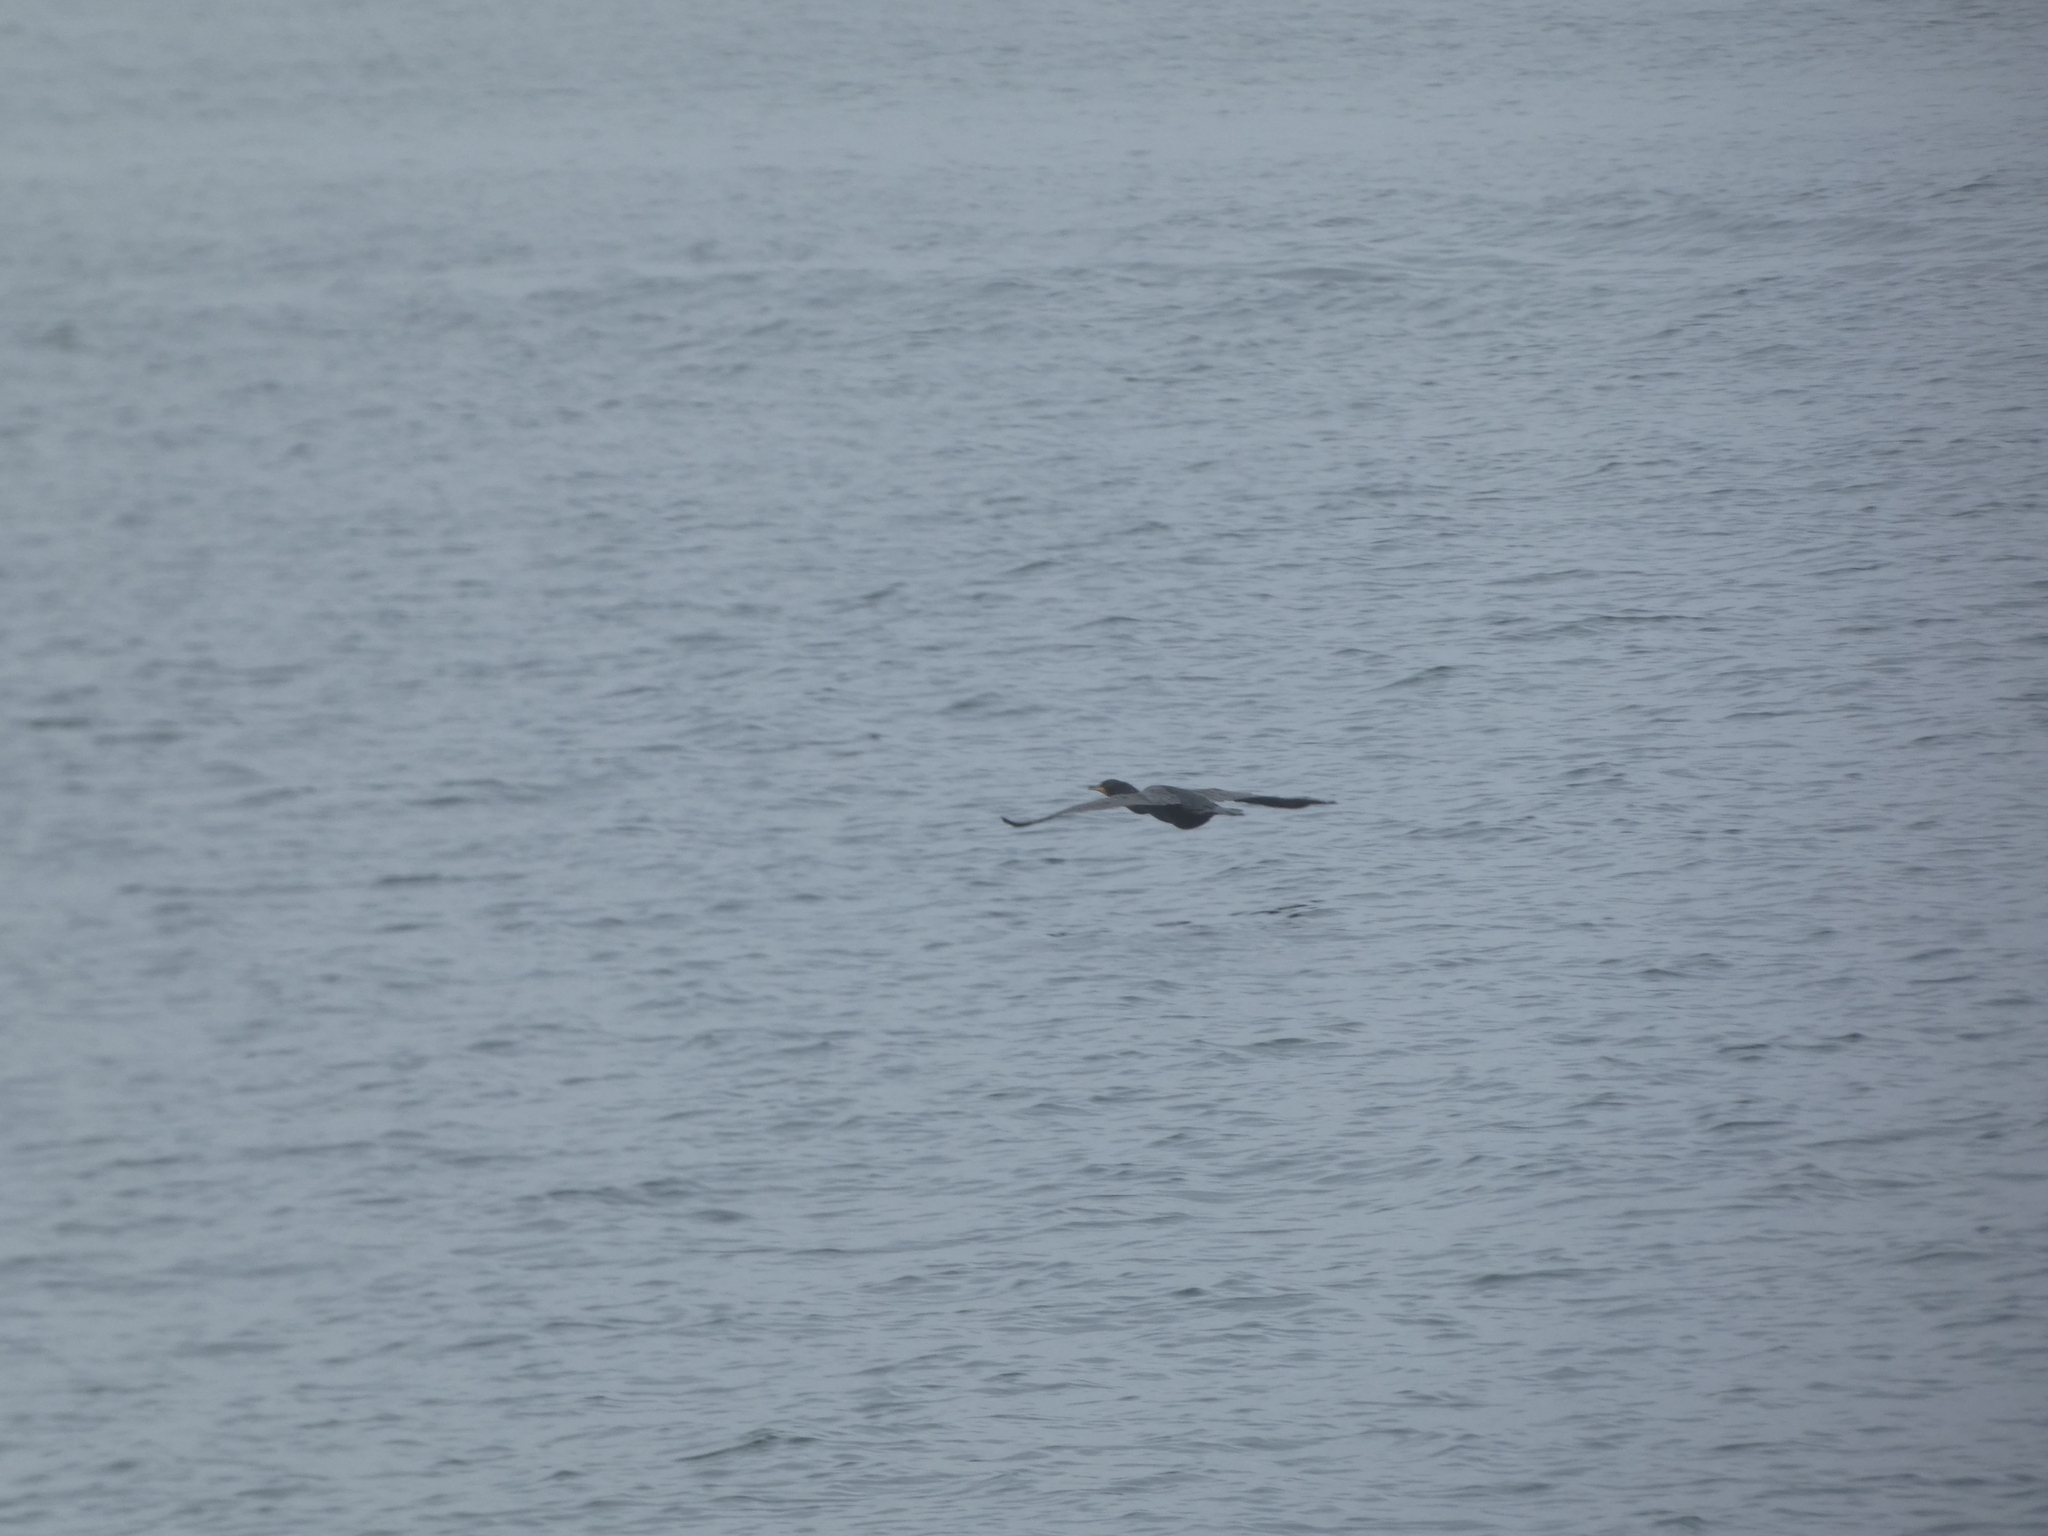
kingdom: Animalia
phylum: Chordata
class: Aves
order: Suliformes
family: Phalacrocoracidae
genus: Phalacrocorax
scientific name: Phalacrocorax auritus
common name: Double-crested cormorant
